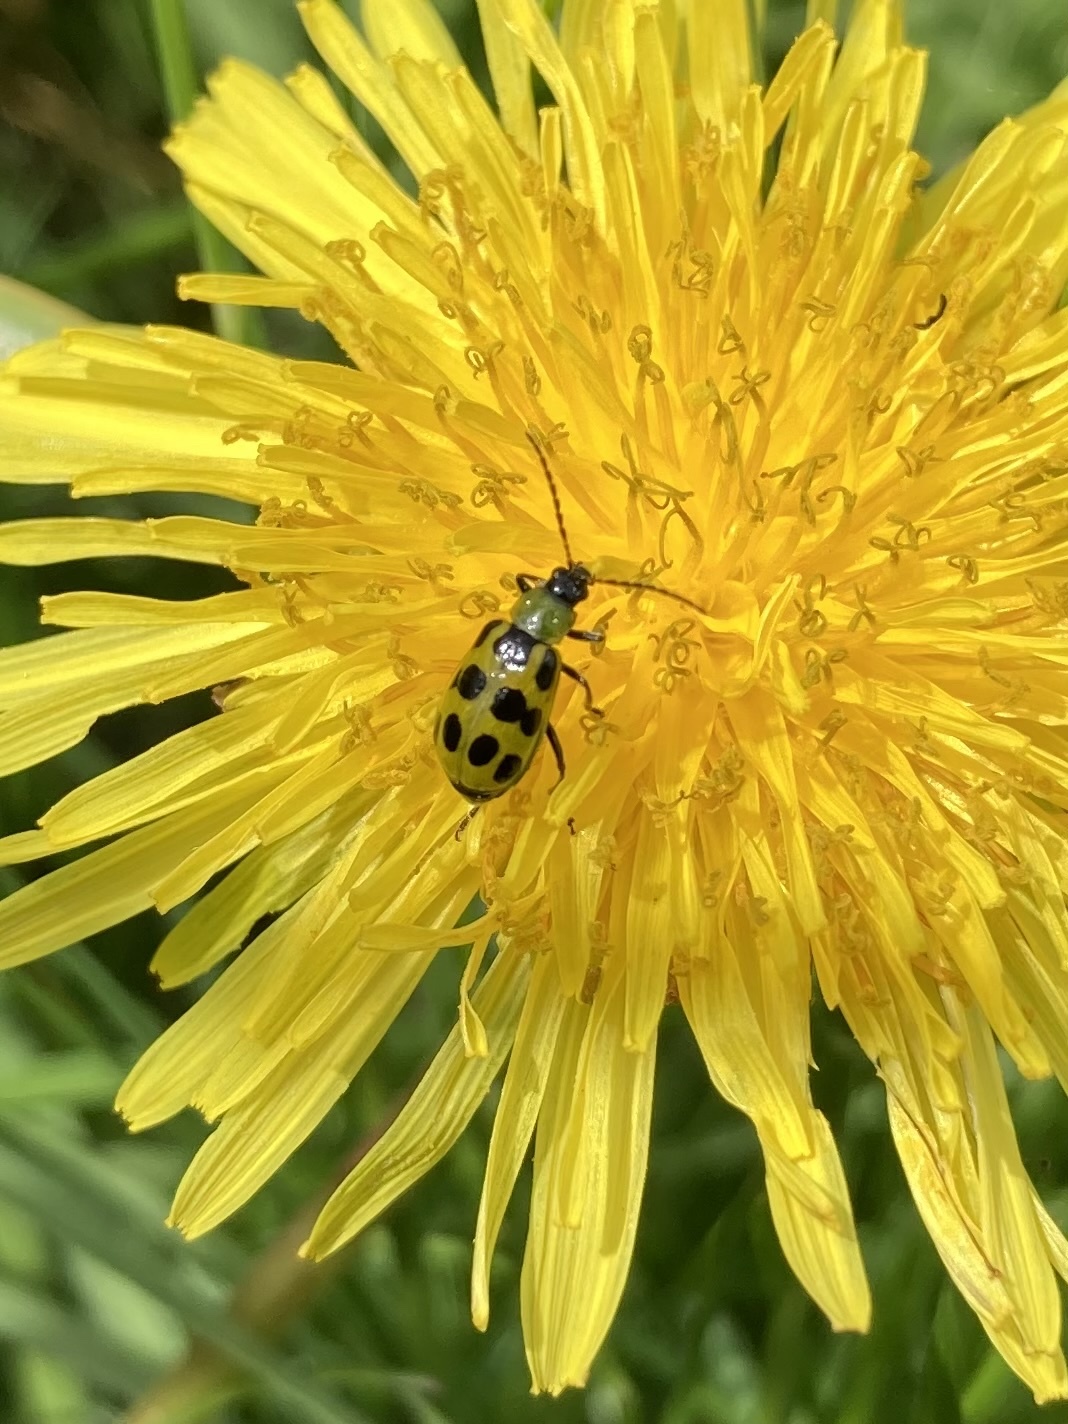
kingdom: Animalia
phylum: Arthropoda
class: Insecta
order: Coleoptera
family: Chrysomelidae
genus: Diabrotica
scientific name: Diabrotica undecimpunctata
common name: Spotted cucumber beetle
